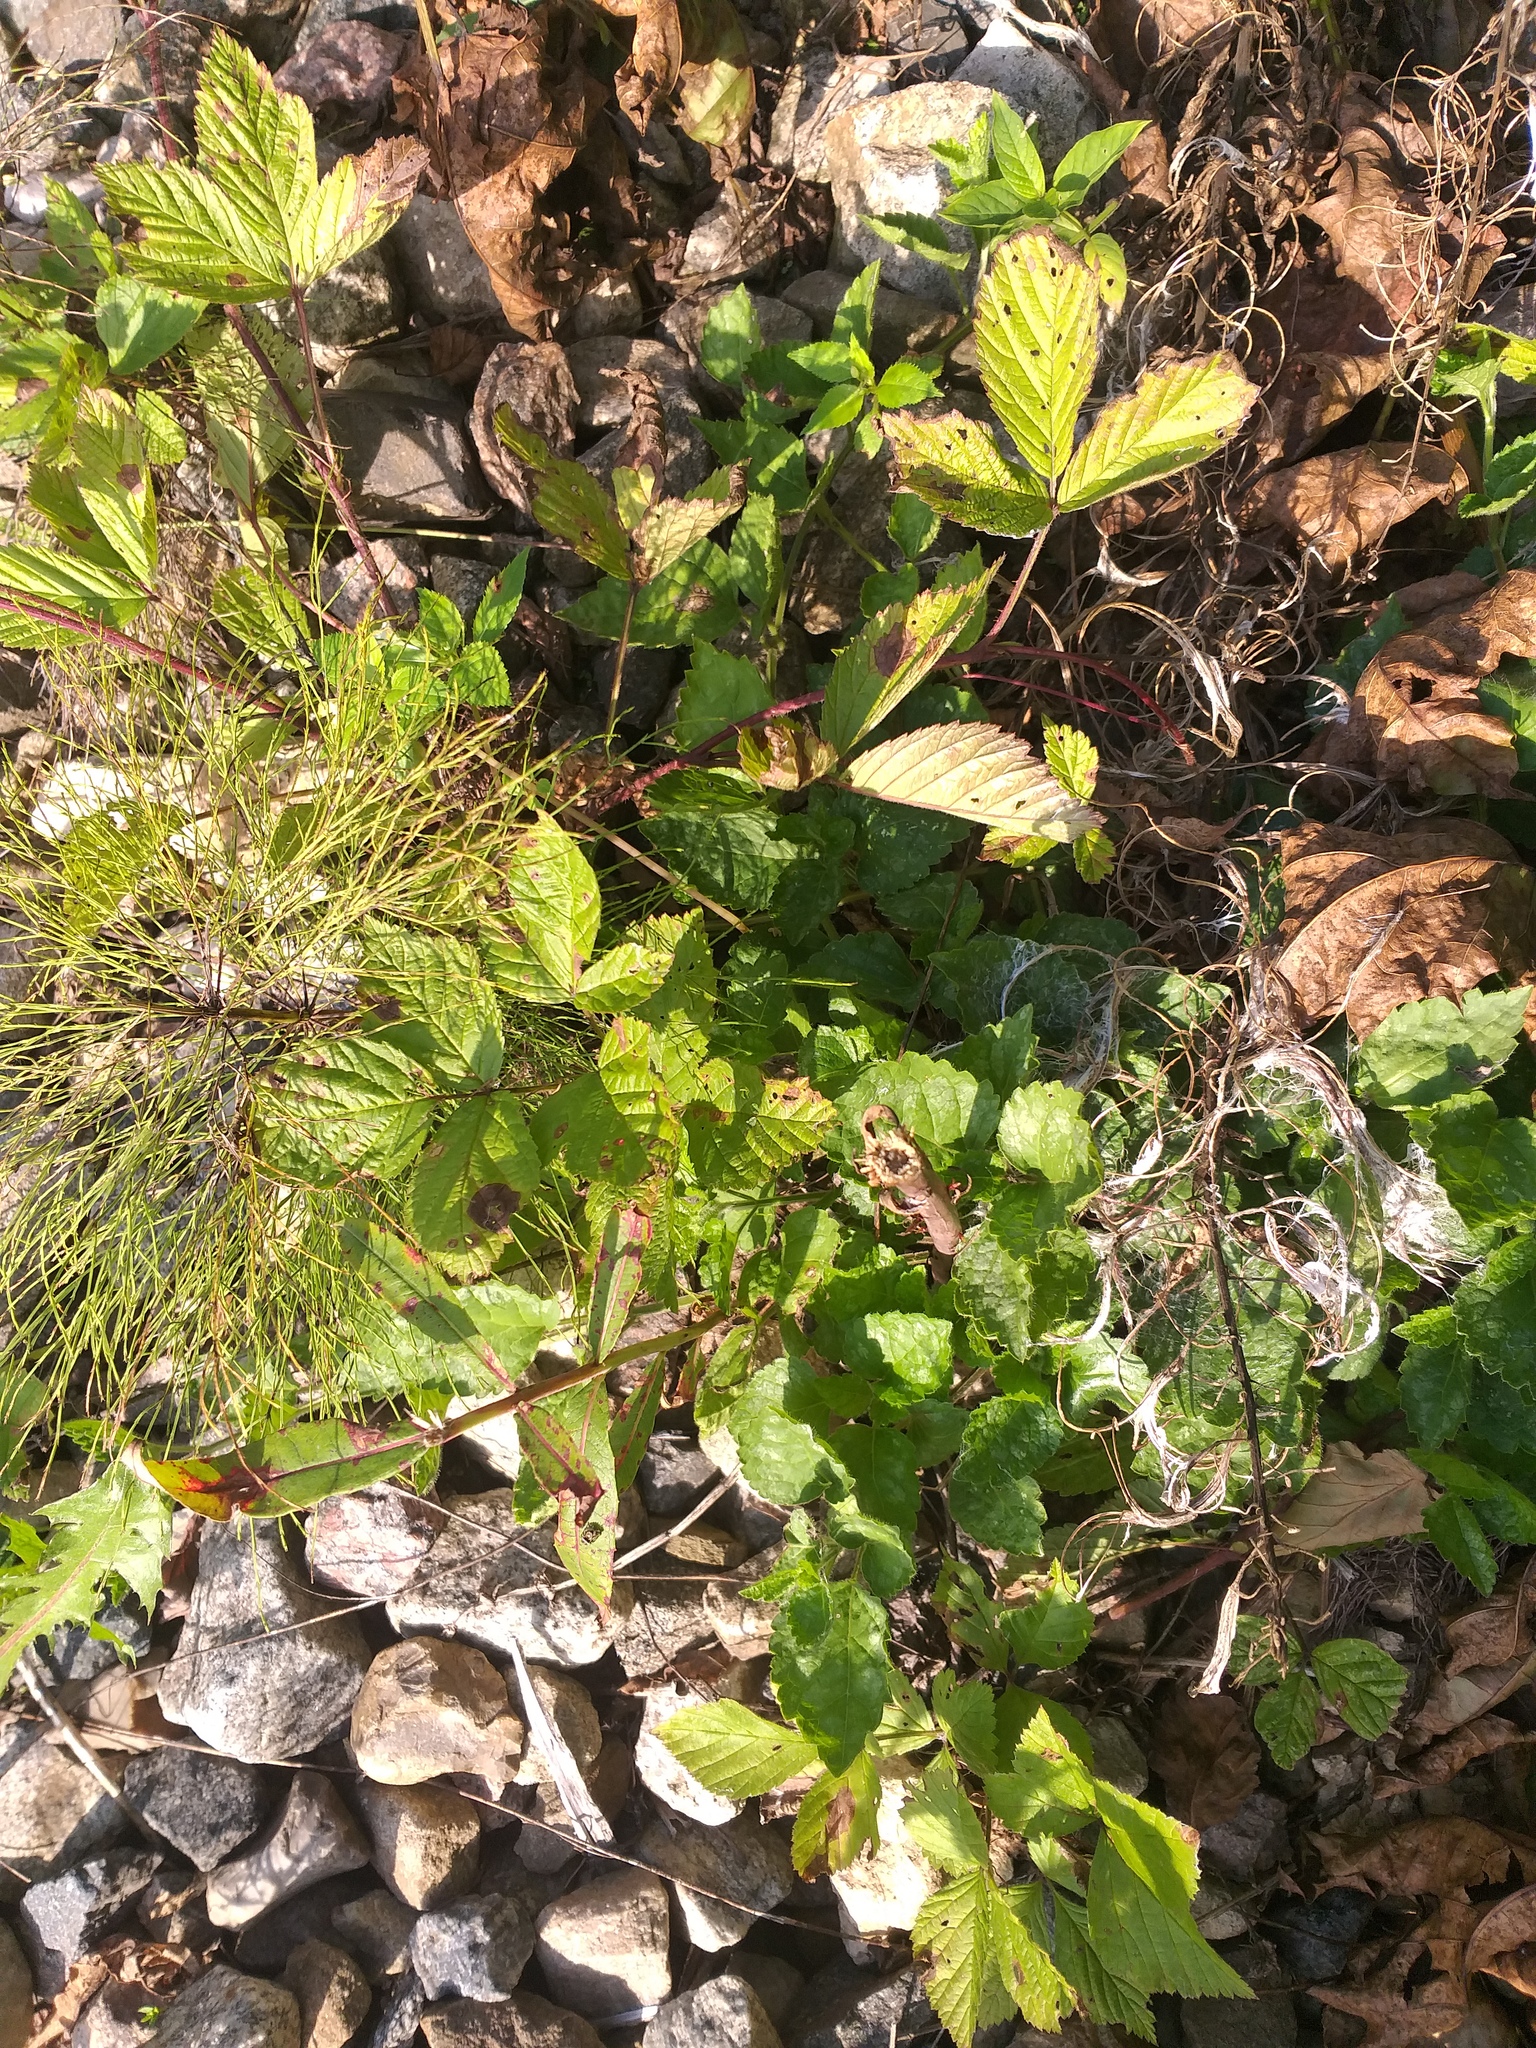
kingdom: Plantae
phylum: Tracheophyta
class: Magnoliopsida
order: Rosales
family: Rosaceae
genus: Rubus
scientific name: Rubus saxatilis
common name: Stone bramble
